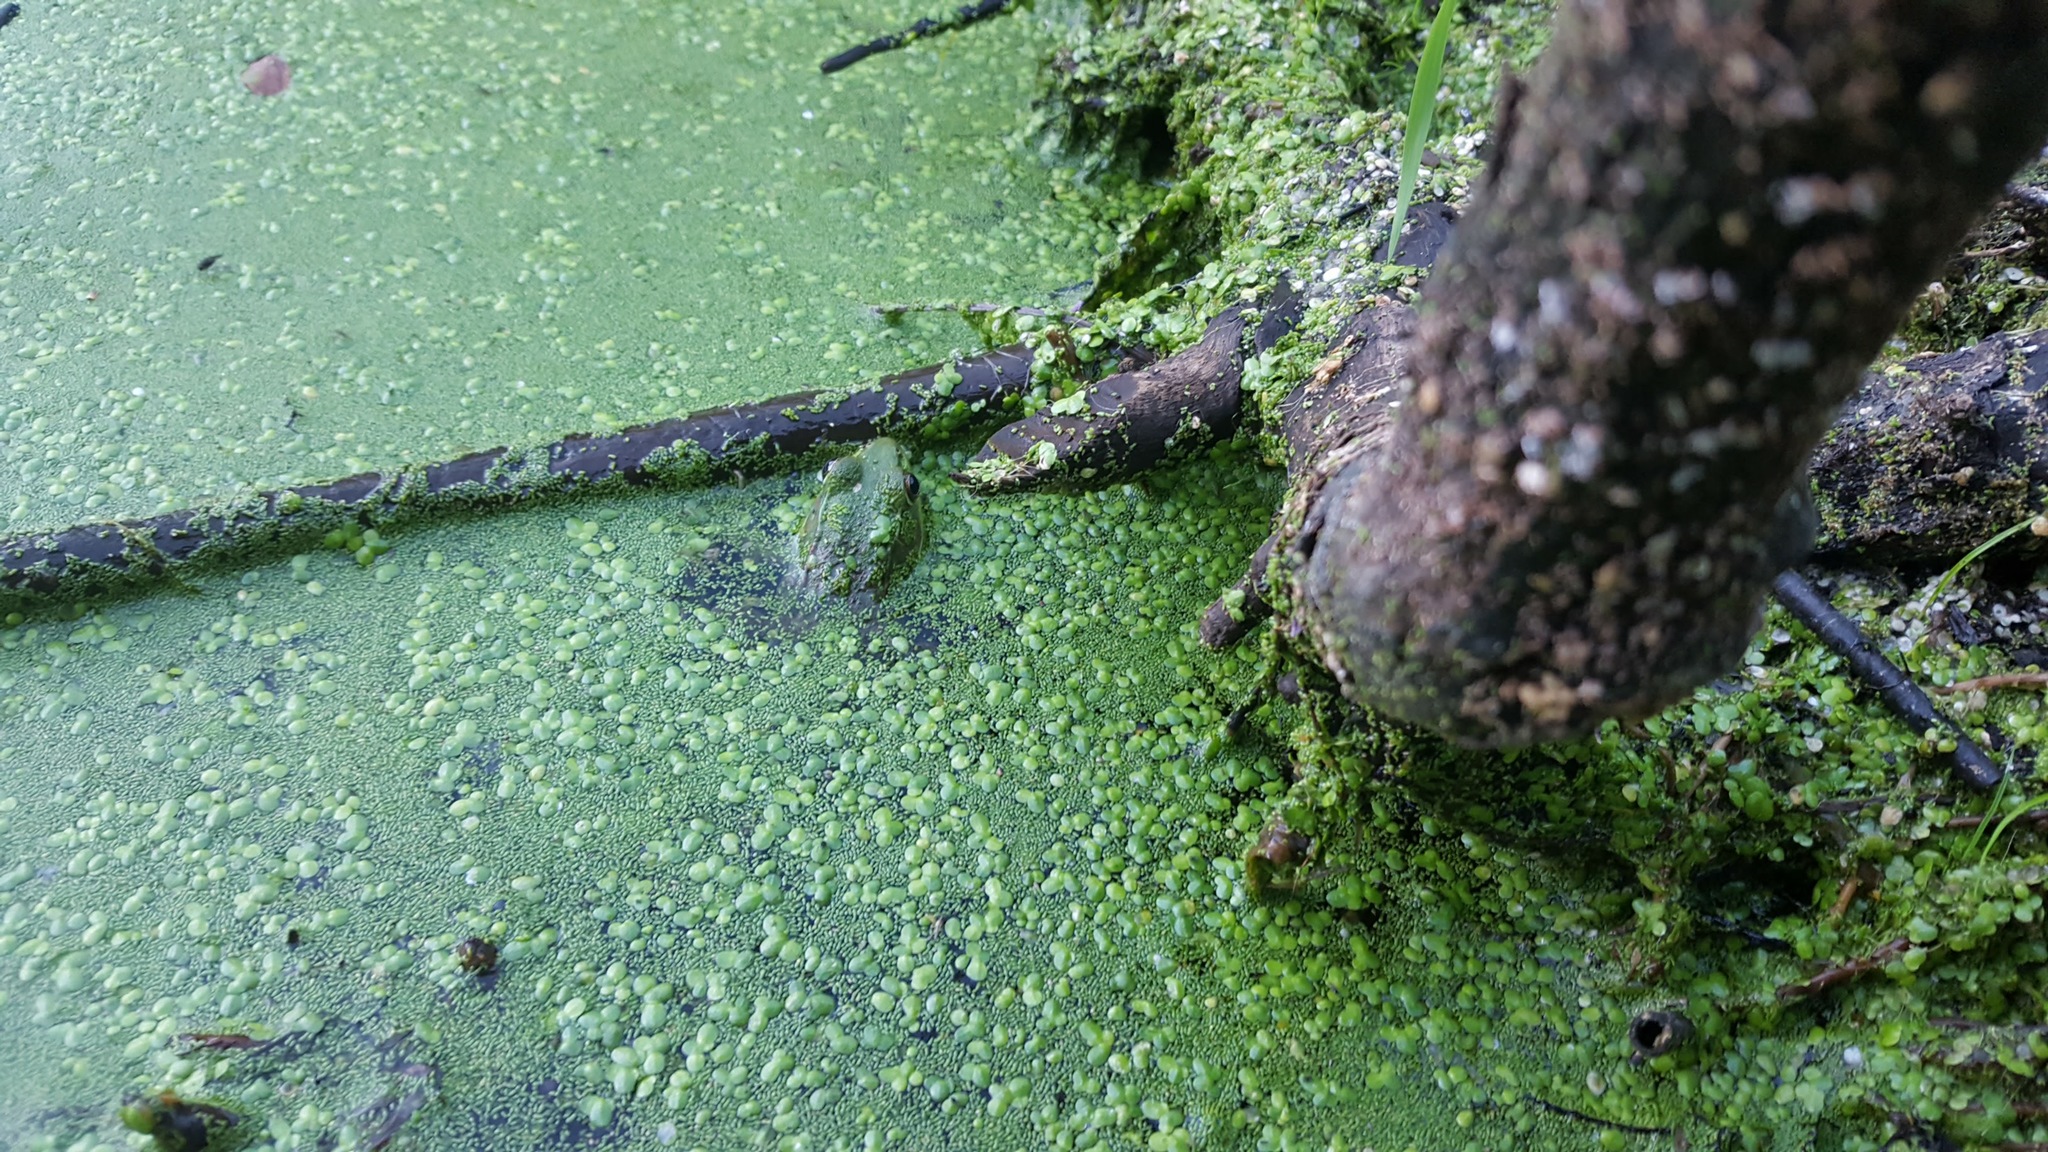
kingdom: Animalia
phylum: Chordata
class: Amphibia
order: Anura
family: Ranidae
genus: Lithobates
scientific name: Lithobates clamitans
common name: Green frog
